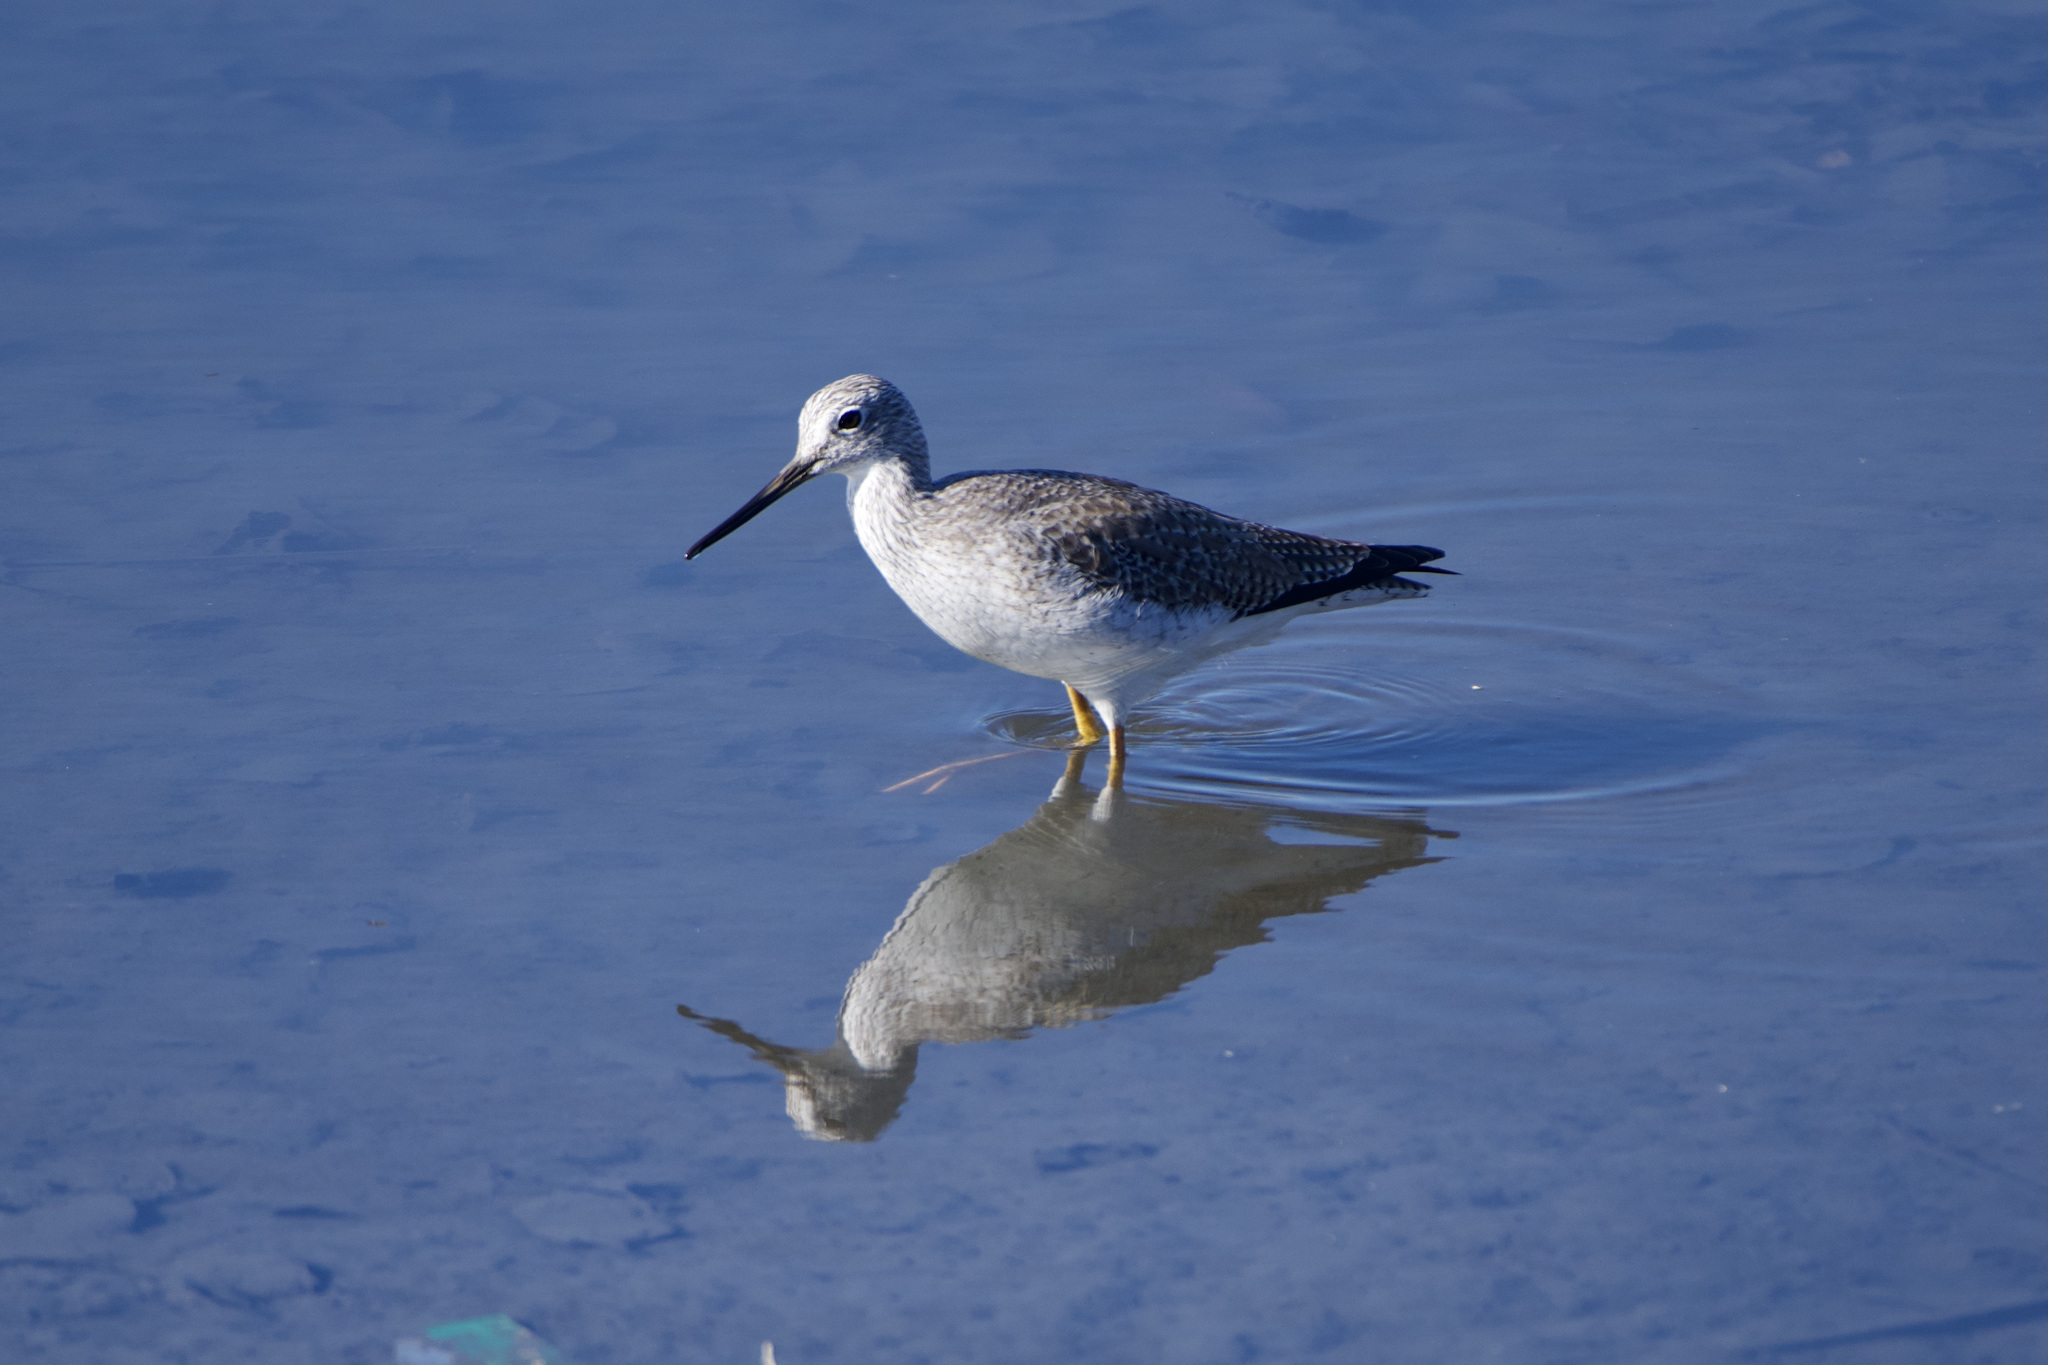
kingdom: Animalia
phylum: Chordata
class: Aves
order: Charadriiformes
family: Scolopacidae
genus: Tringa
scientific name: Tringa melanoleuca
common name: Greater yellowlegs
